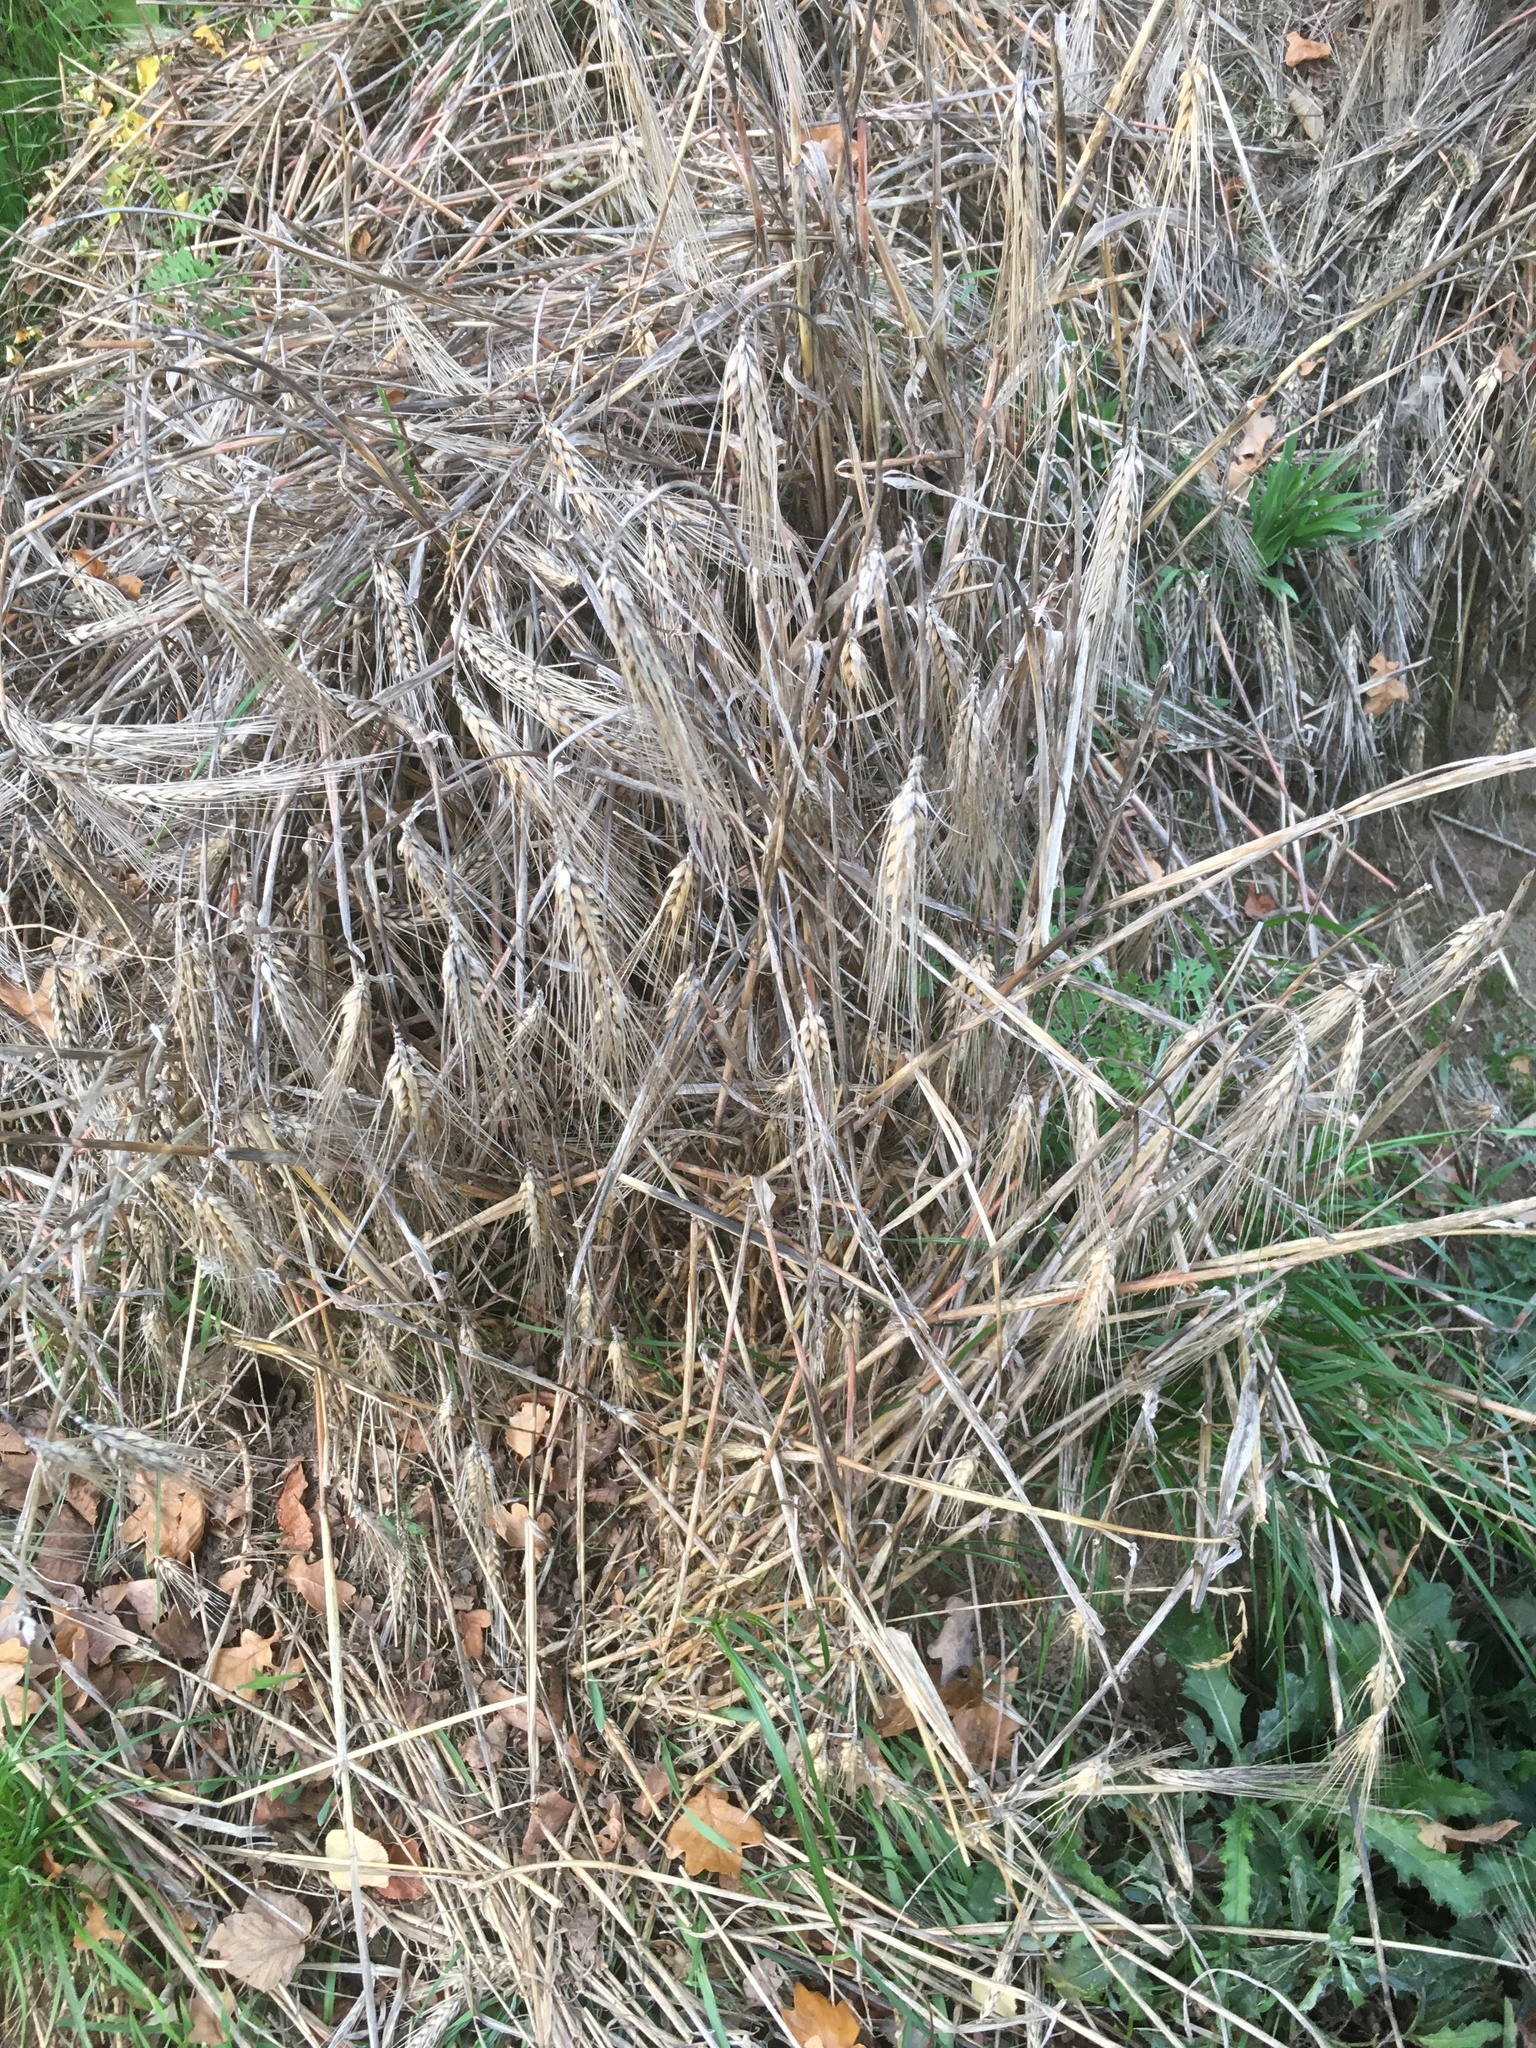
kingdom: Plantae
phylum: Tracheophyta
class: Liliopsida
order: Poales
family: Poaceae
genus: Hordeum
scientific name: Hordeum vulgare
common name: Common barley
